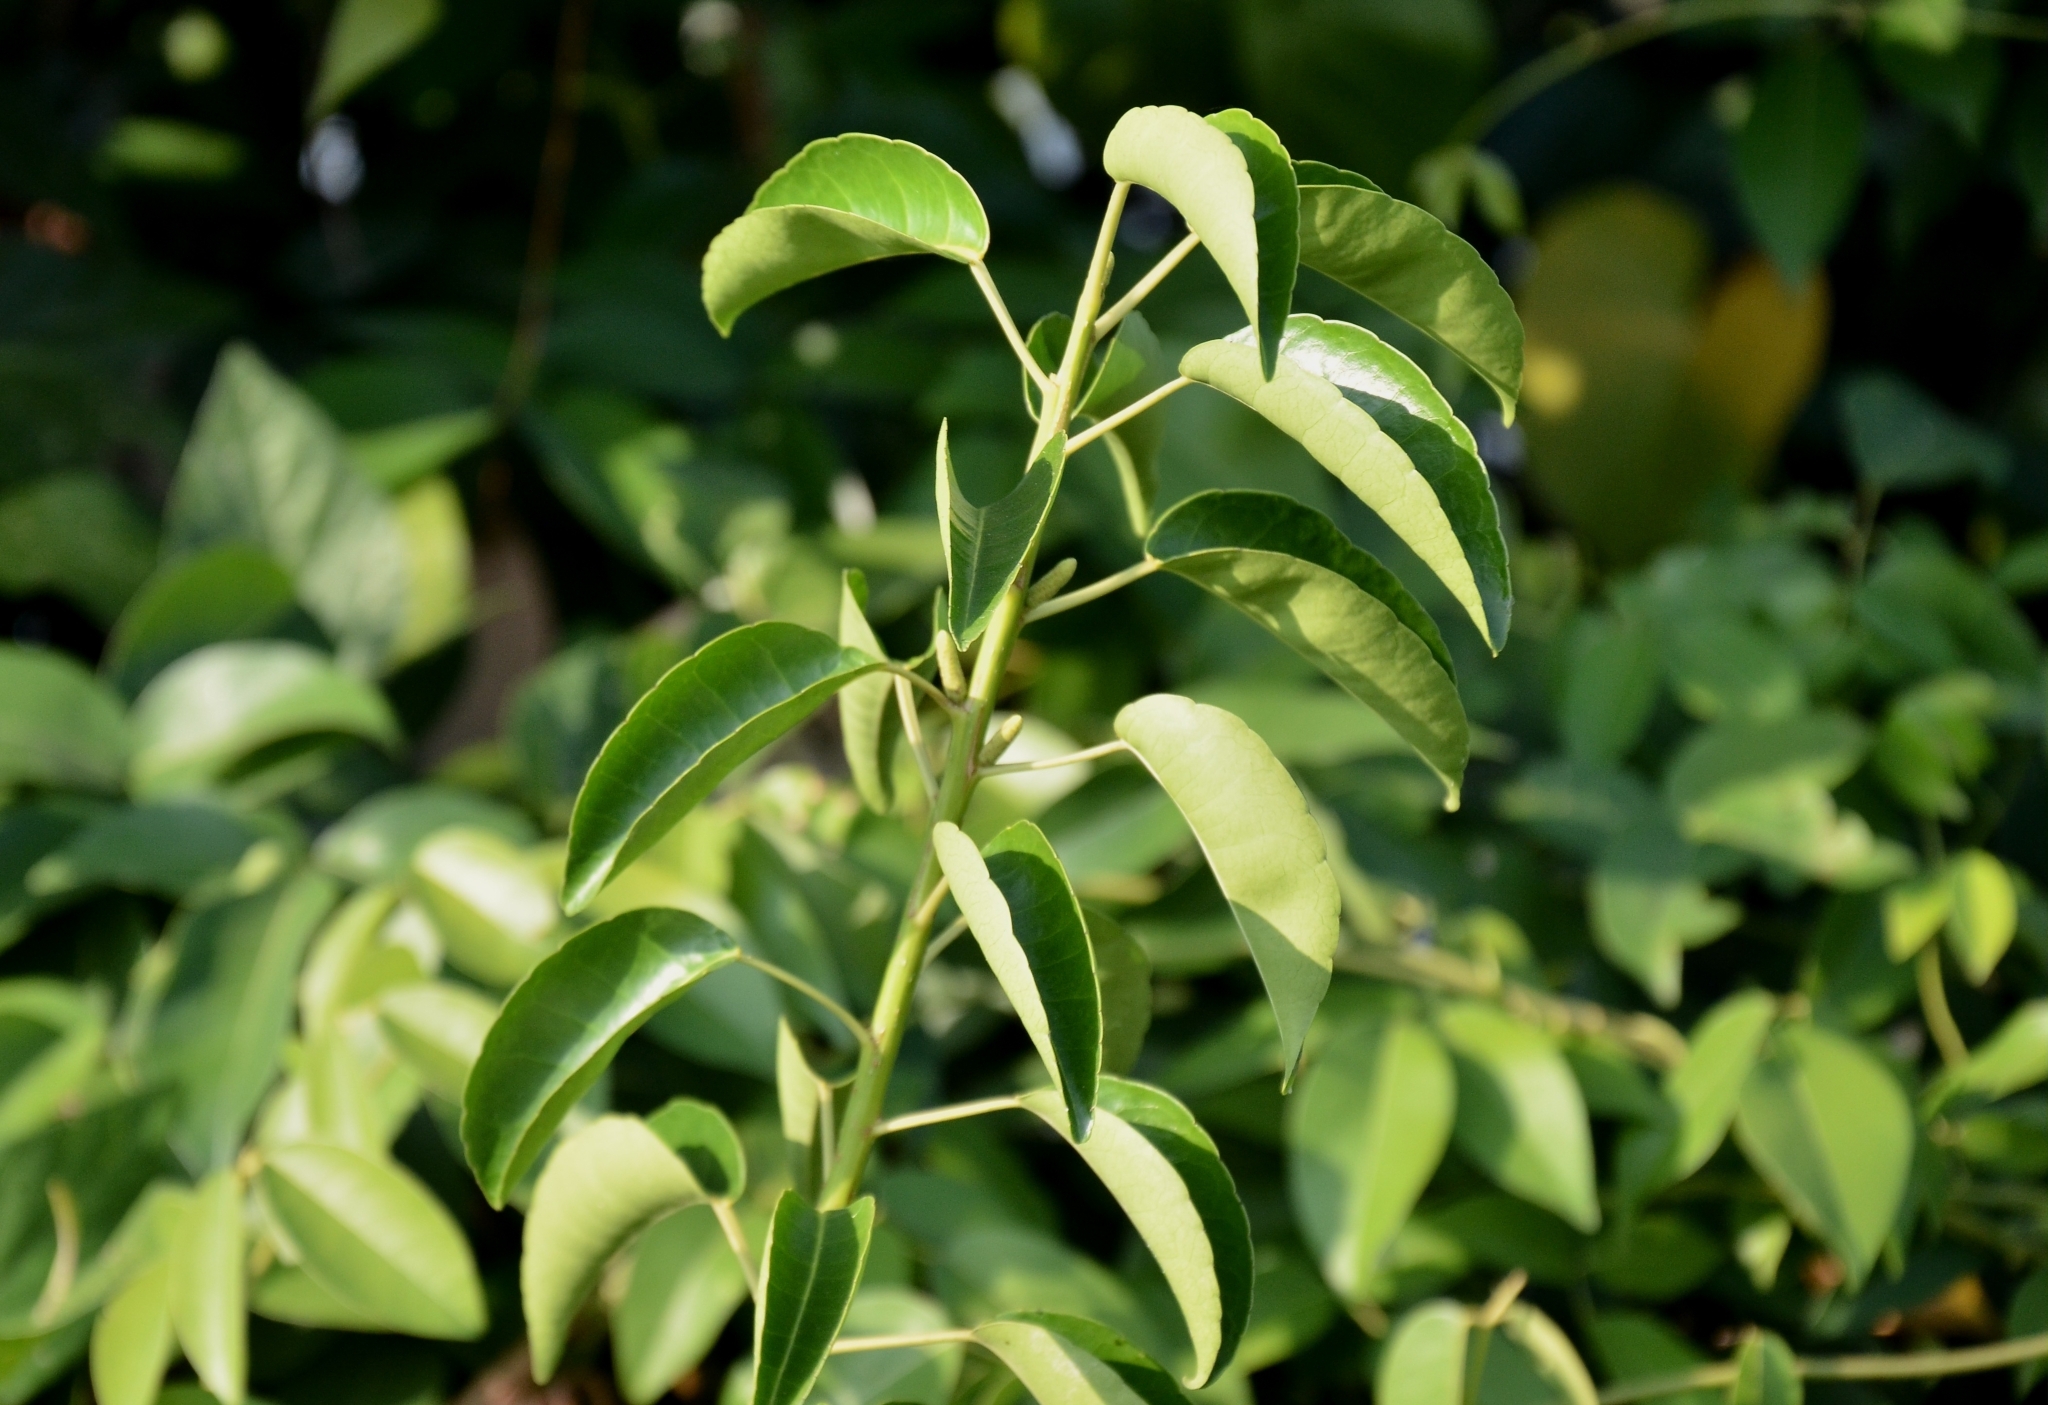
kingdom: Plantae
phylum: Tracheophyta
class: Magnoliopsida
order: Malpighiales
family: Euphorbiaceae
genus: Excoecaria
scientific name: Excoecaria agallocha
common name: River poisontree
